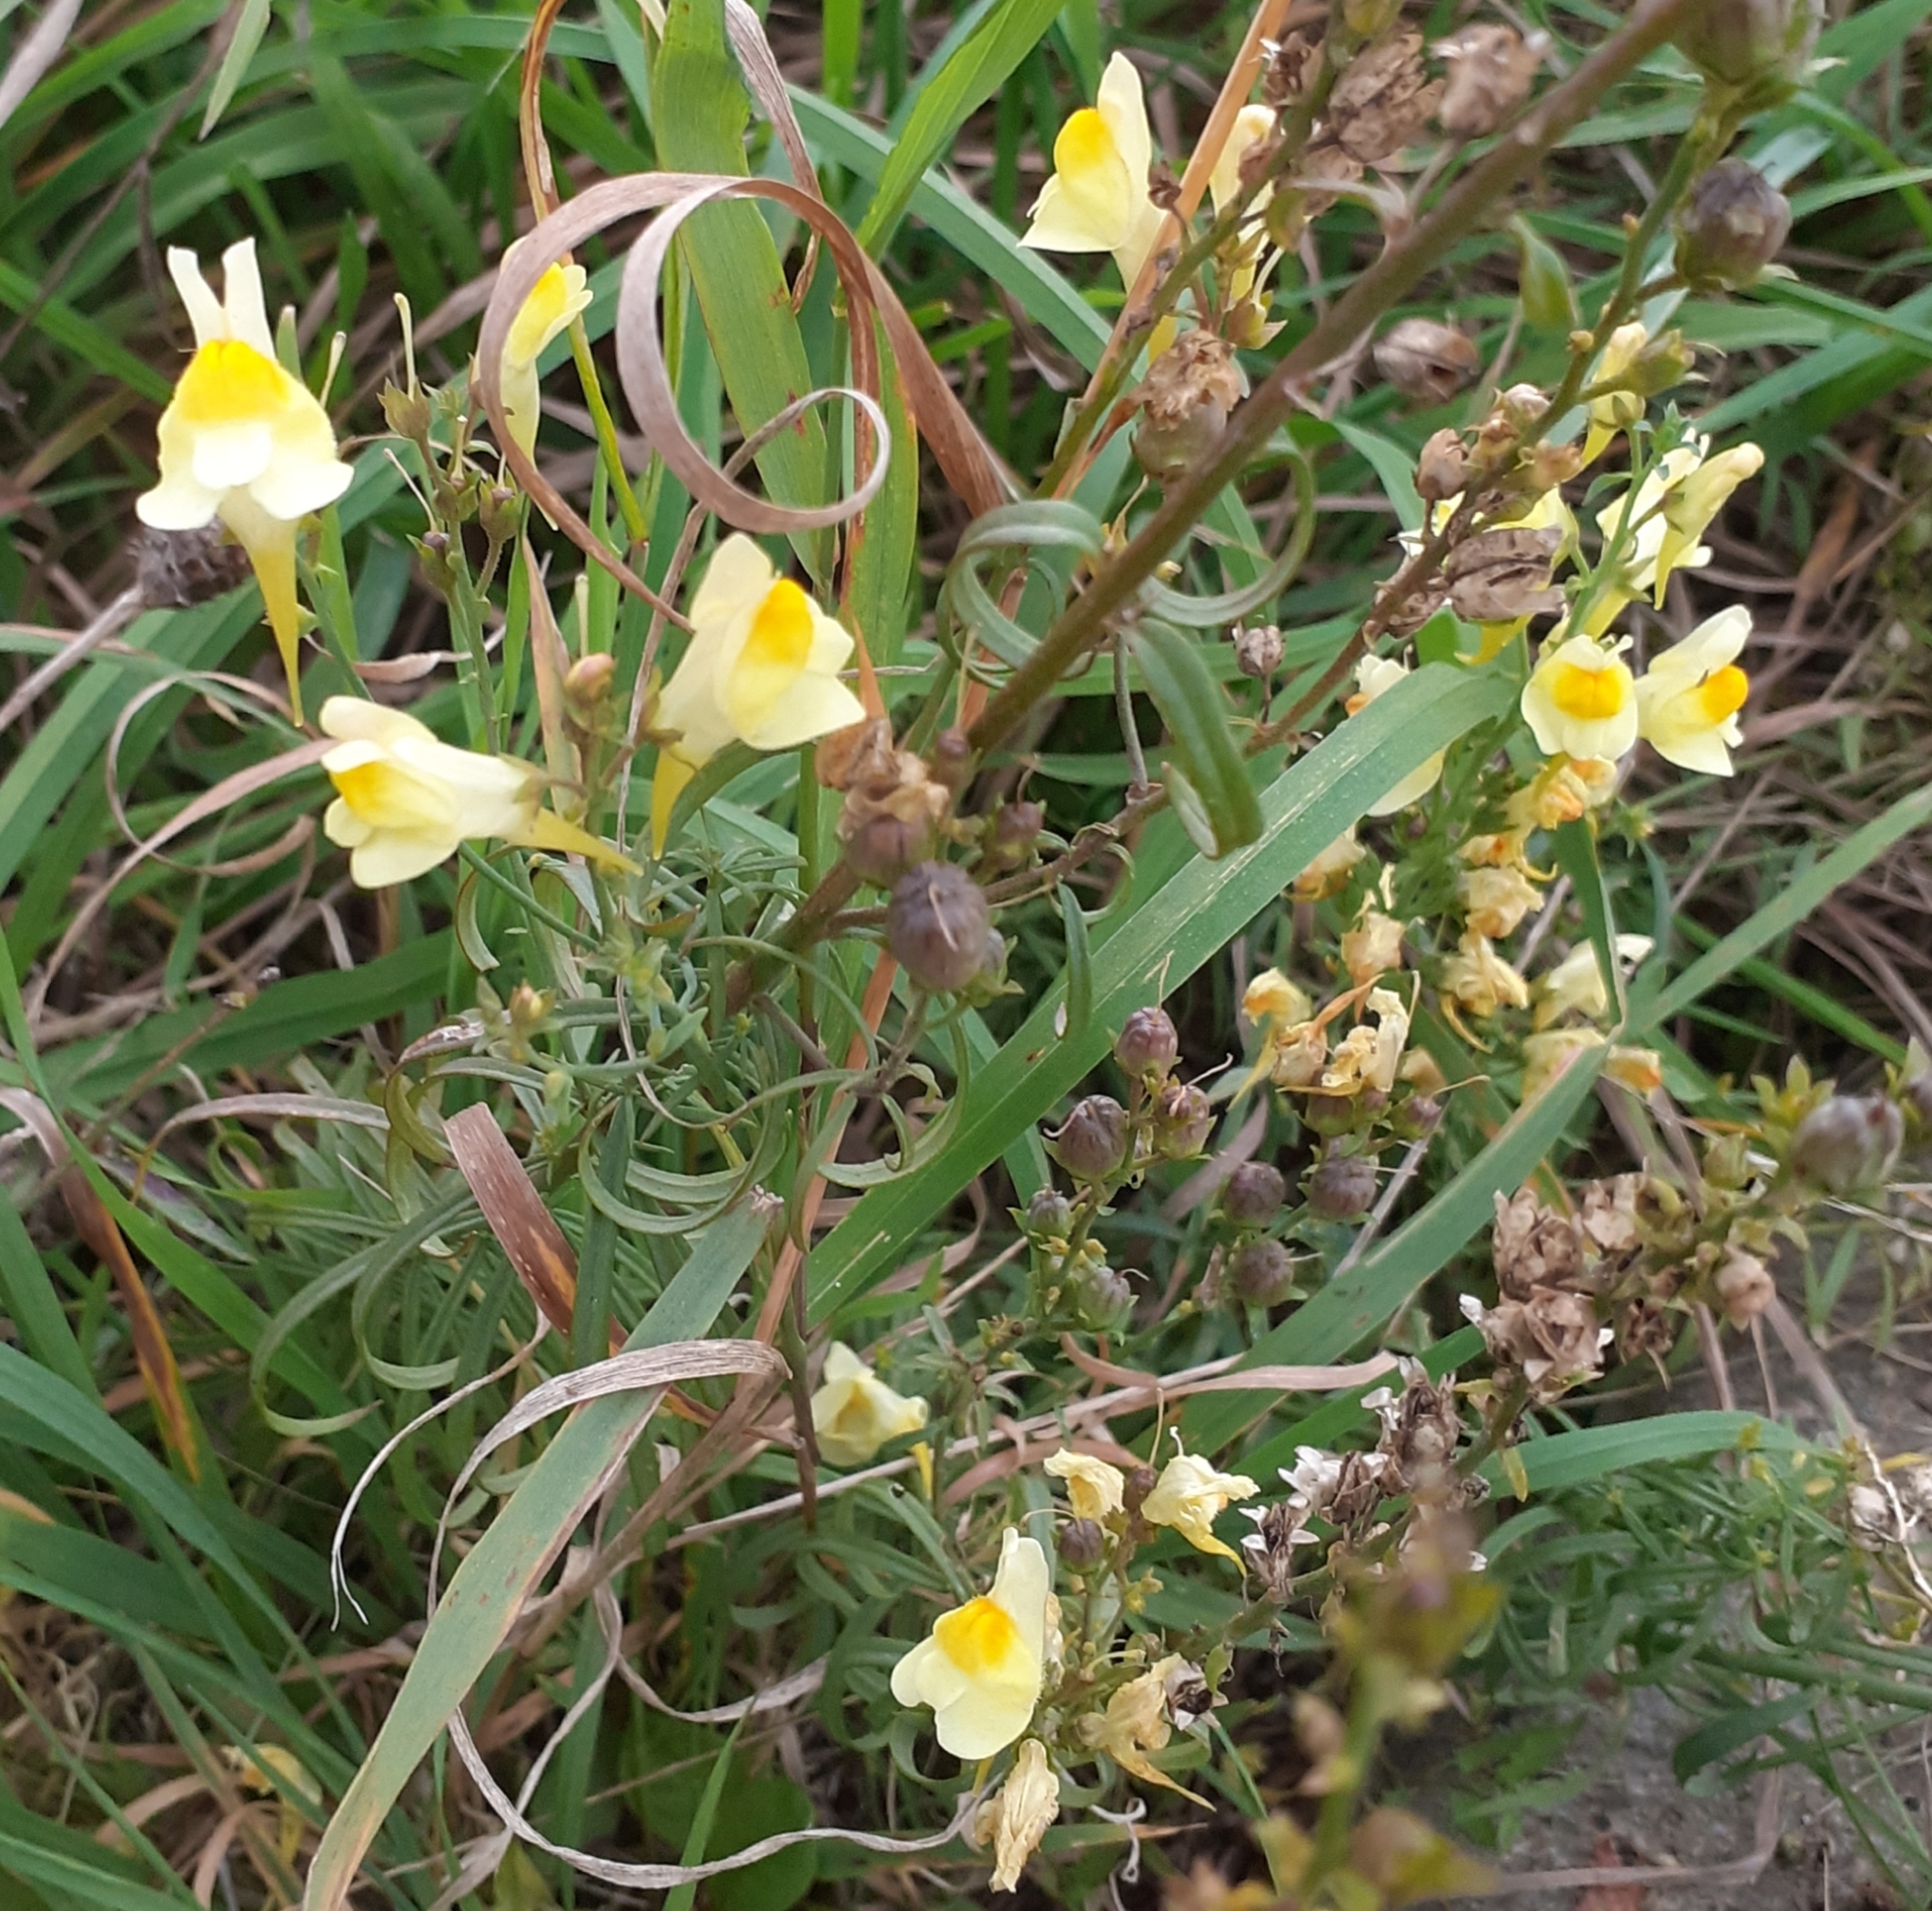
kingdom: Plantae
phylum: Tracheophyta
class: Magnoliopsida
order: Lamiales
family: Plantaginaceae
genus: Linaria
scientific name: Linaria vulgaris
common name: Butter and eggs
